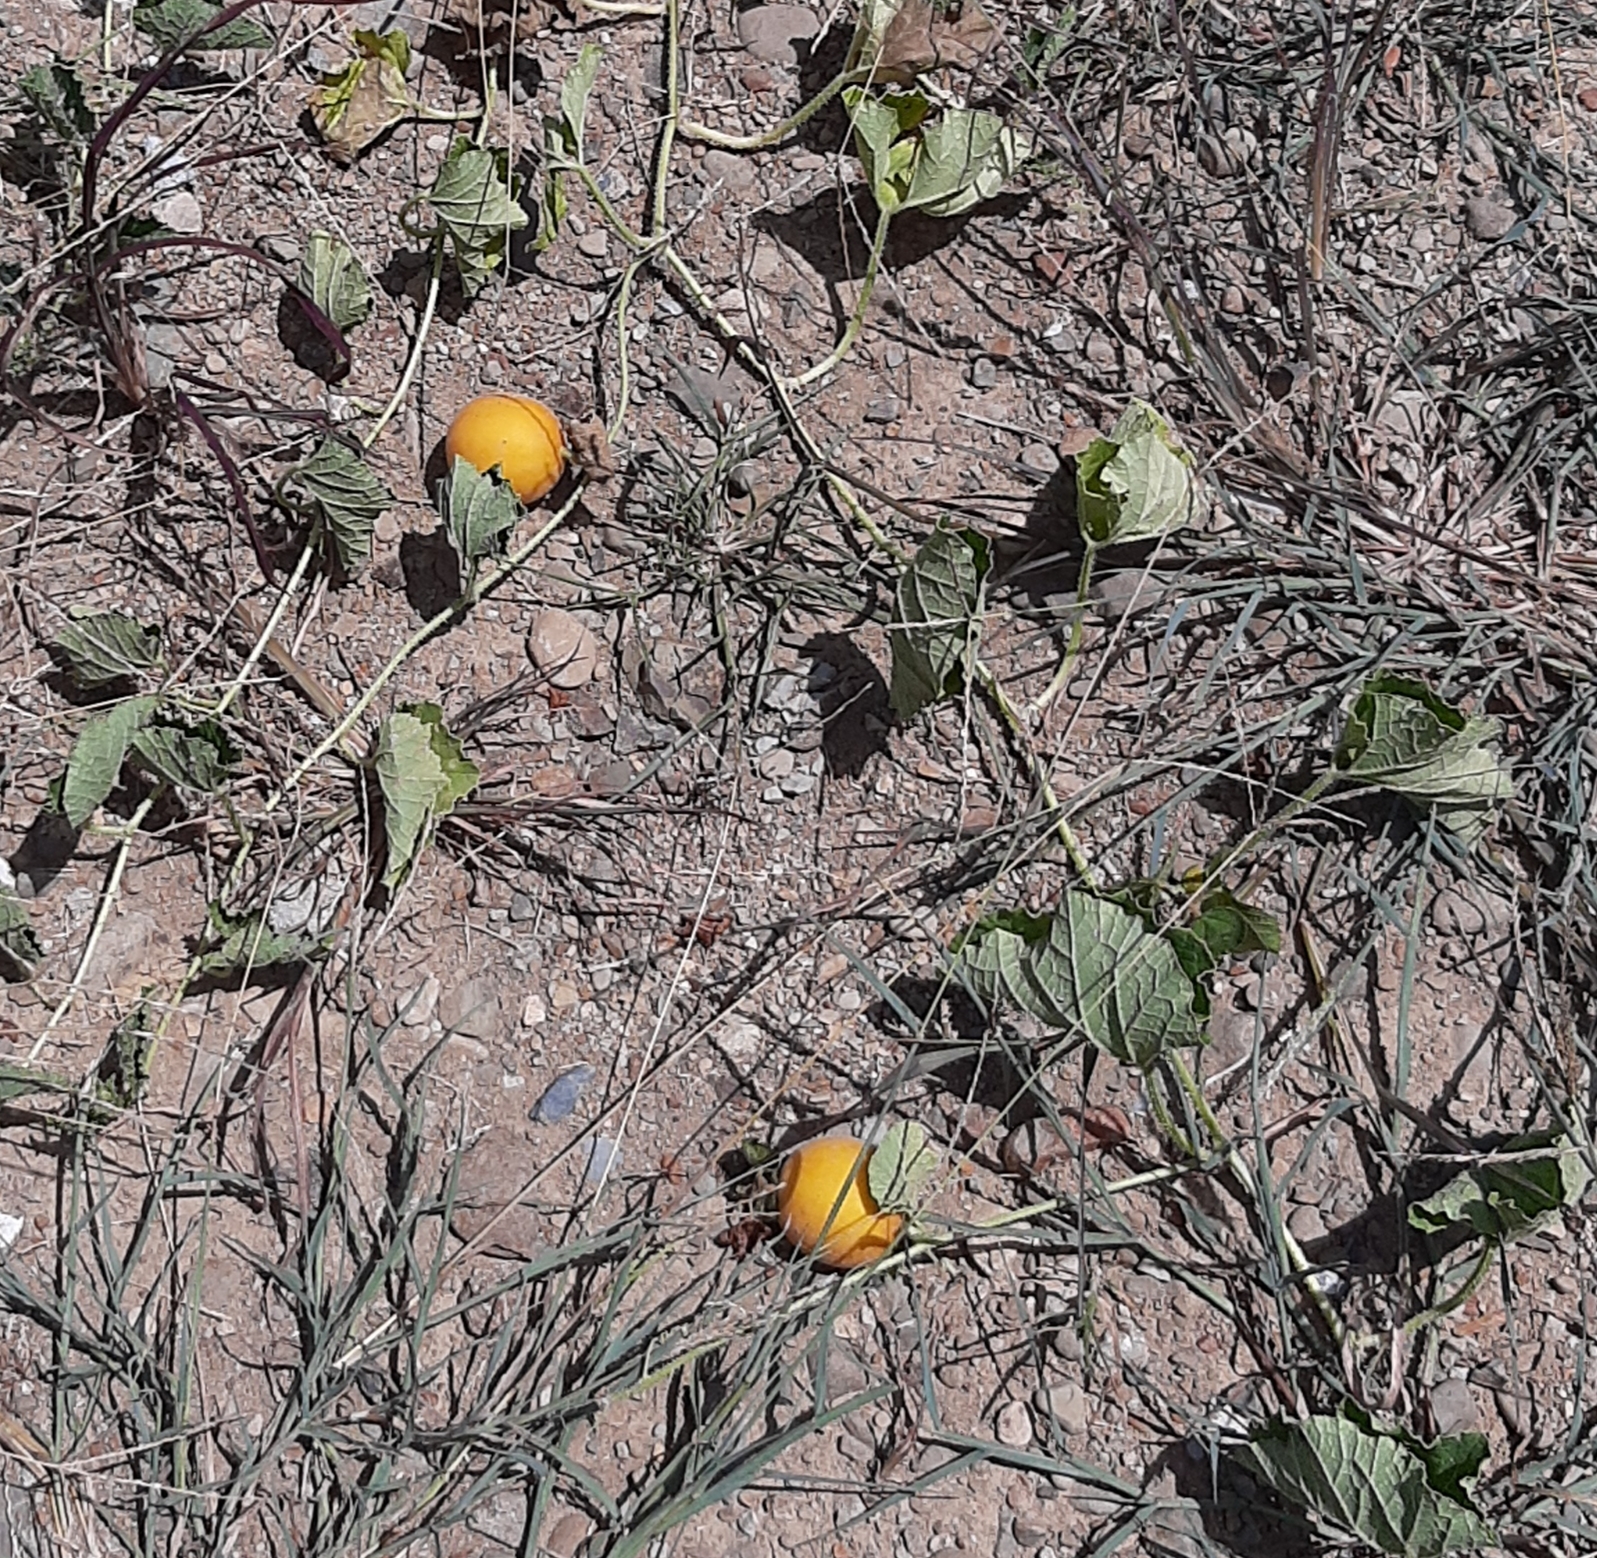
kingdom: Plantae
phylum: Tracheophyta
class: Magnoliopsida
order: Cucurbitales
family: Cucurbitaceae
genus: Cucumis
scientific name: Cucumis melo
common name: Melon
